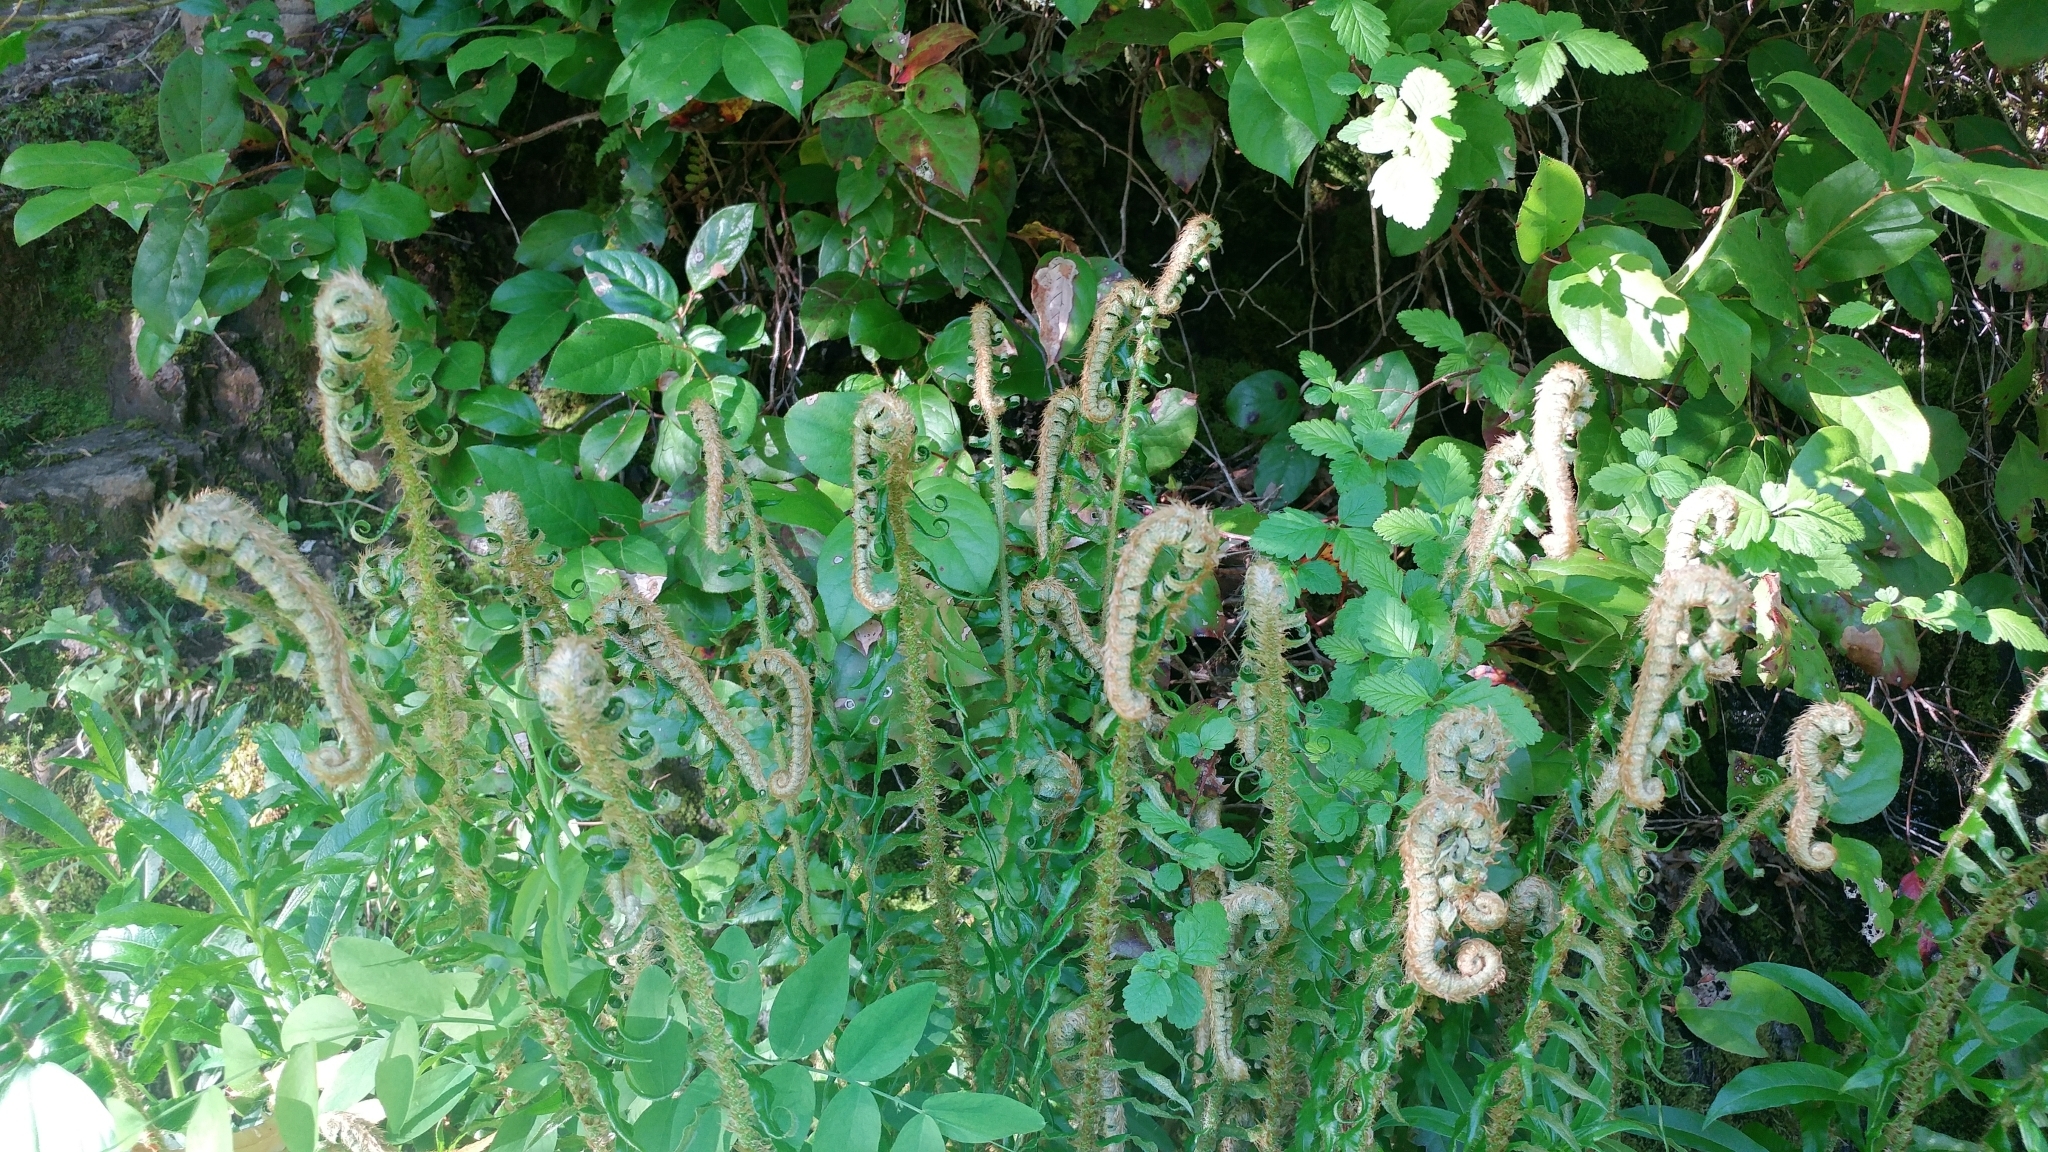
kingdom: Plantae
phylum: Tracheophyta
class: Polypodiopsida
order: Polypodiales
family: Dryopteridaceae
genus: Polystichum
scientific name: Polystichum munitum
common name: Western sword-fern
